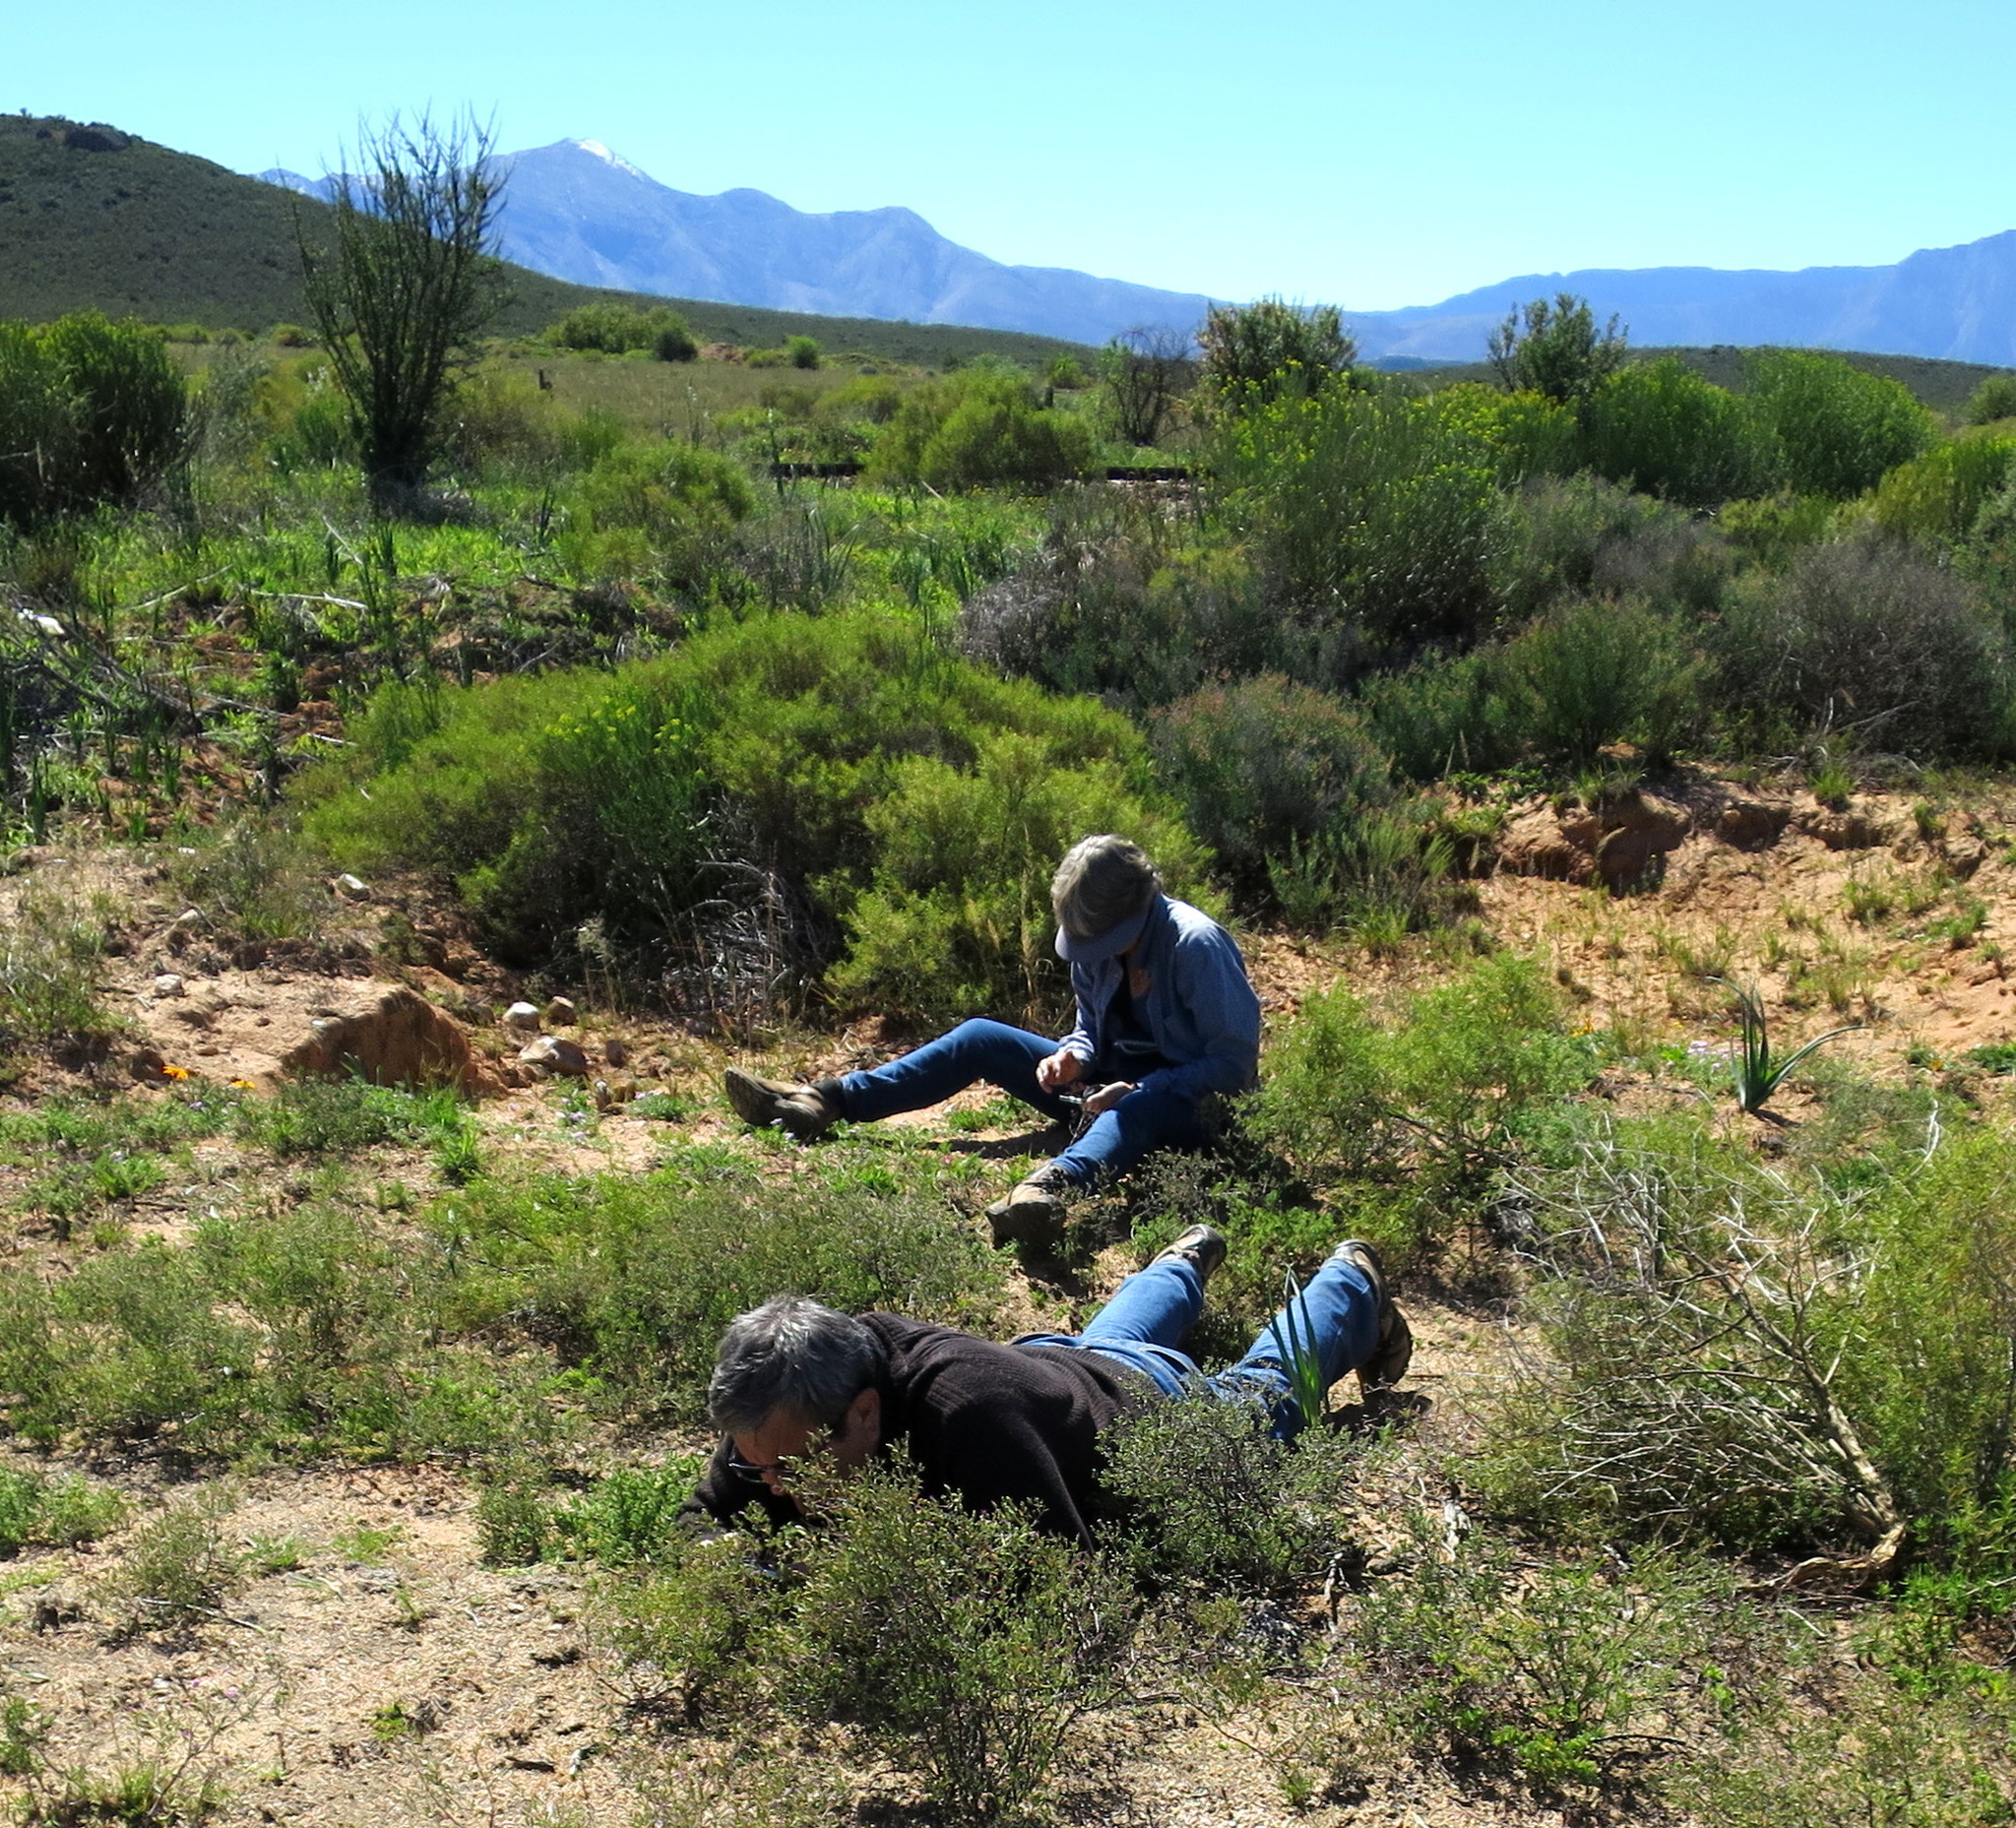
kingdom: Plantae
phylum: Tracheophyta
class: Magnoliopsida
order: Caryophyllales
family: Aizoaceae
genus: Aizoon
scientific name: Aizoon africanum
